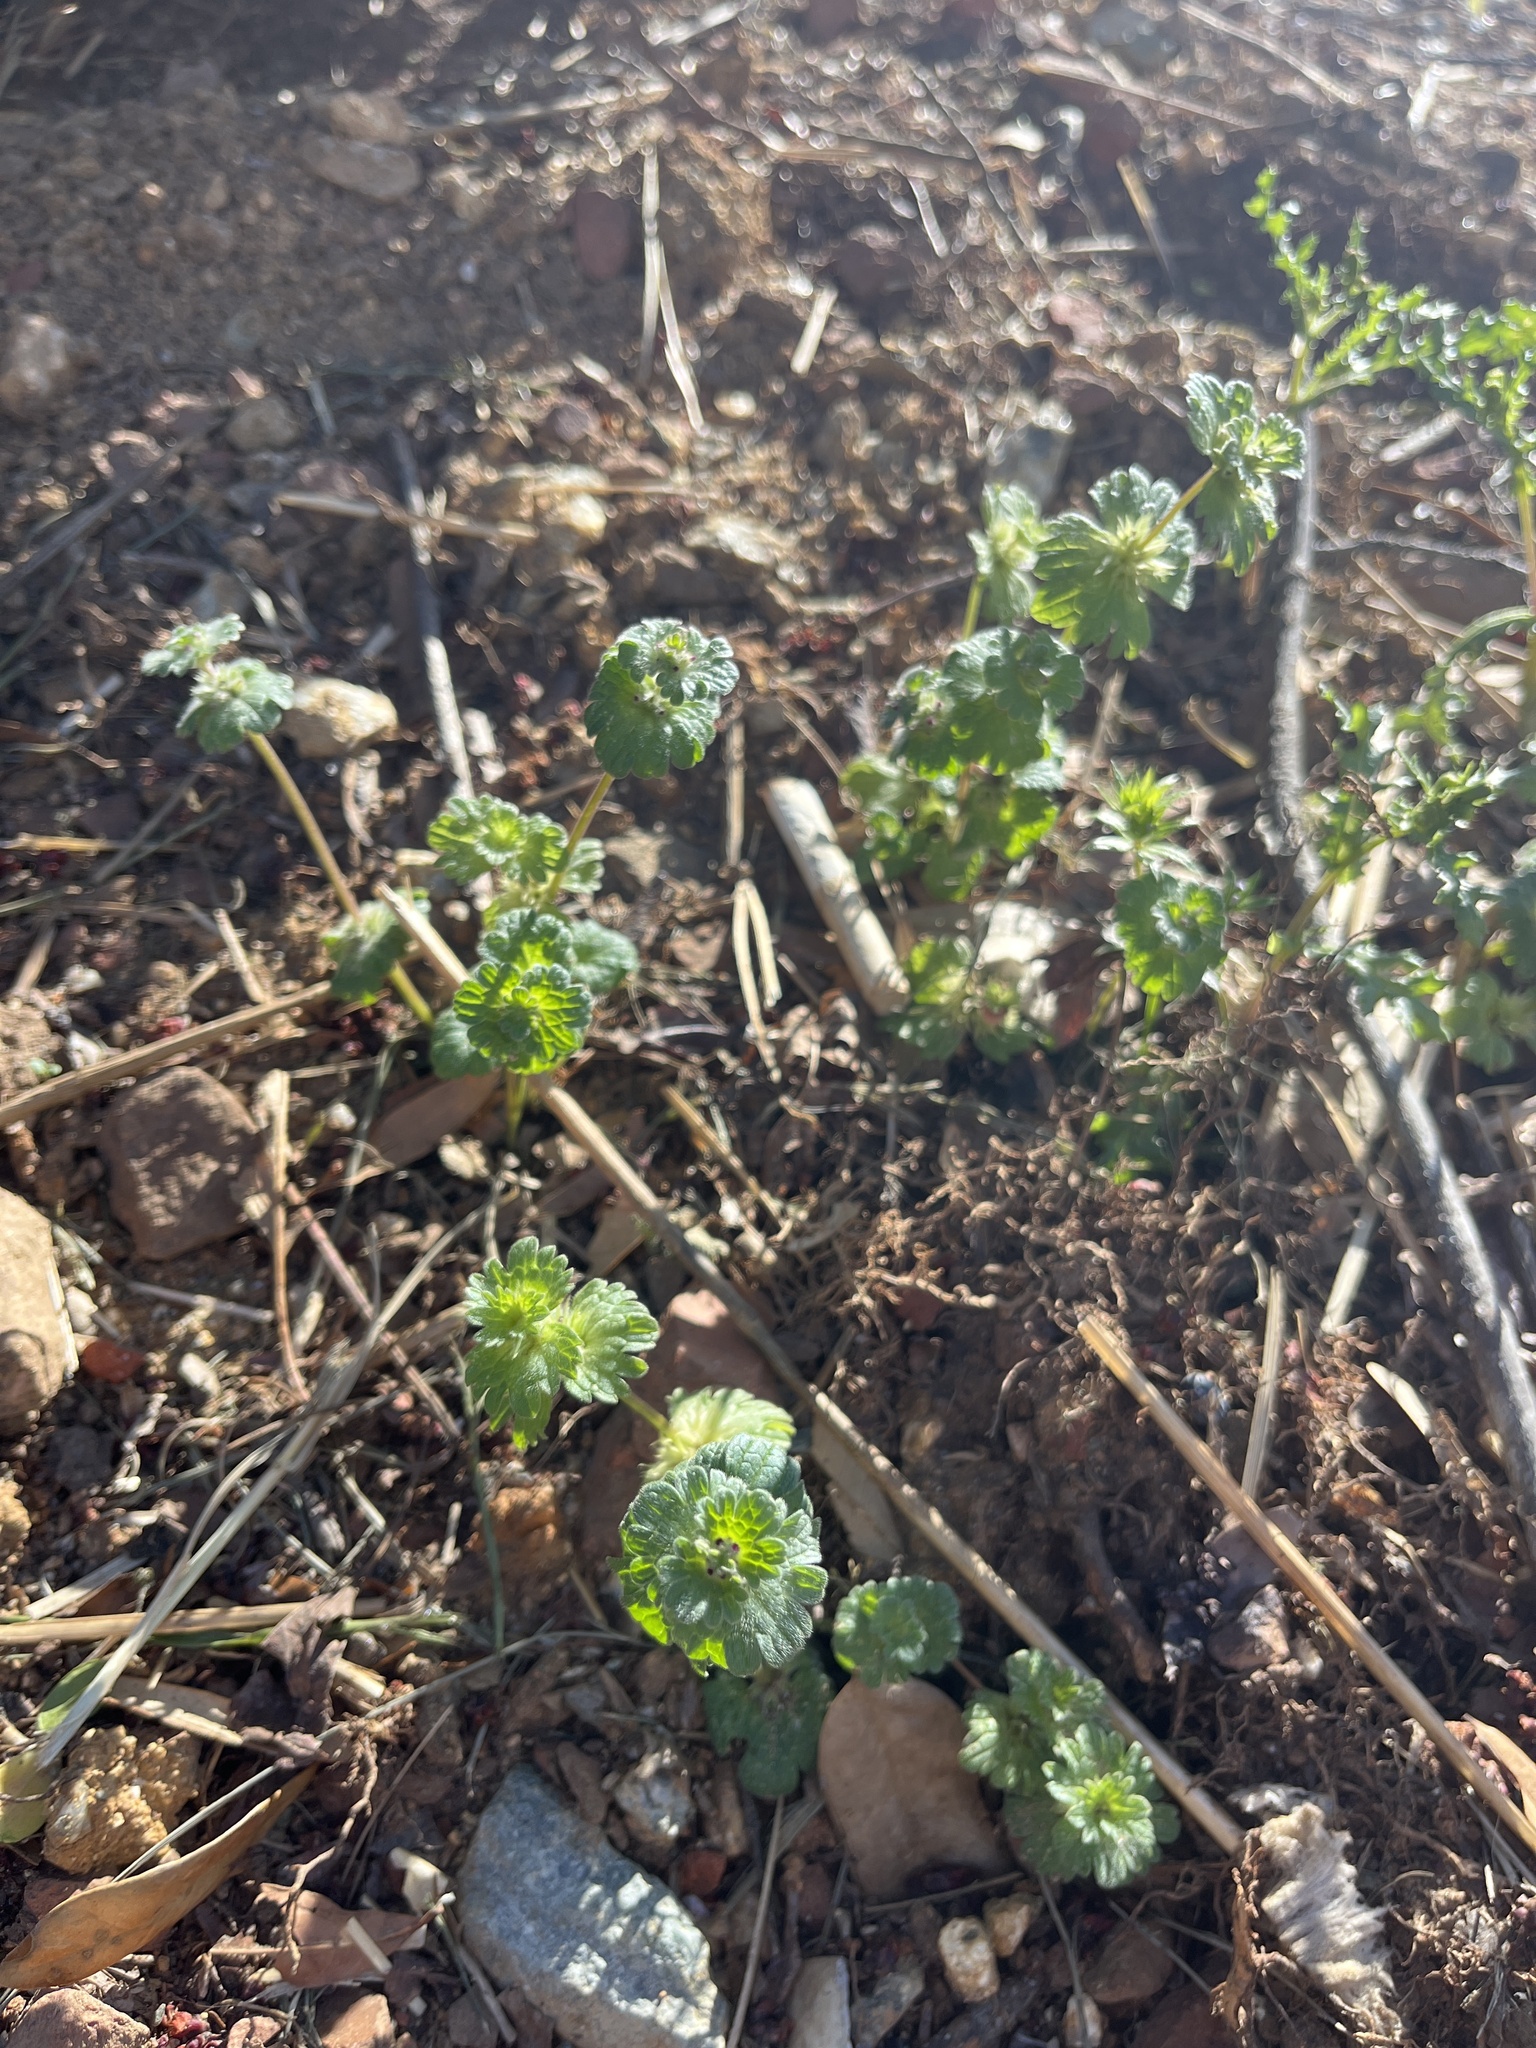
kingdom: Plantae
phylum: Tracheophyta
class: Magnoliopsida
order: Lamiales
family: Lamiaceae
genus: Lamium
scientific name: Lamium amplexicaule
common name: Henbit dead-nettle
